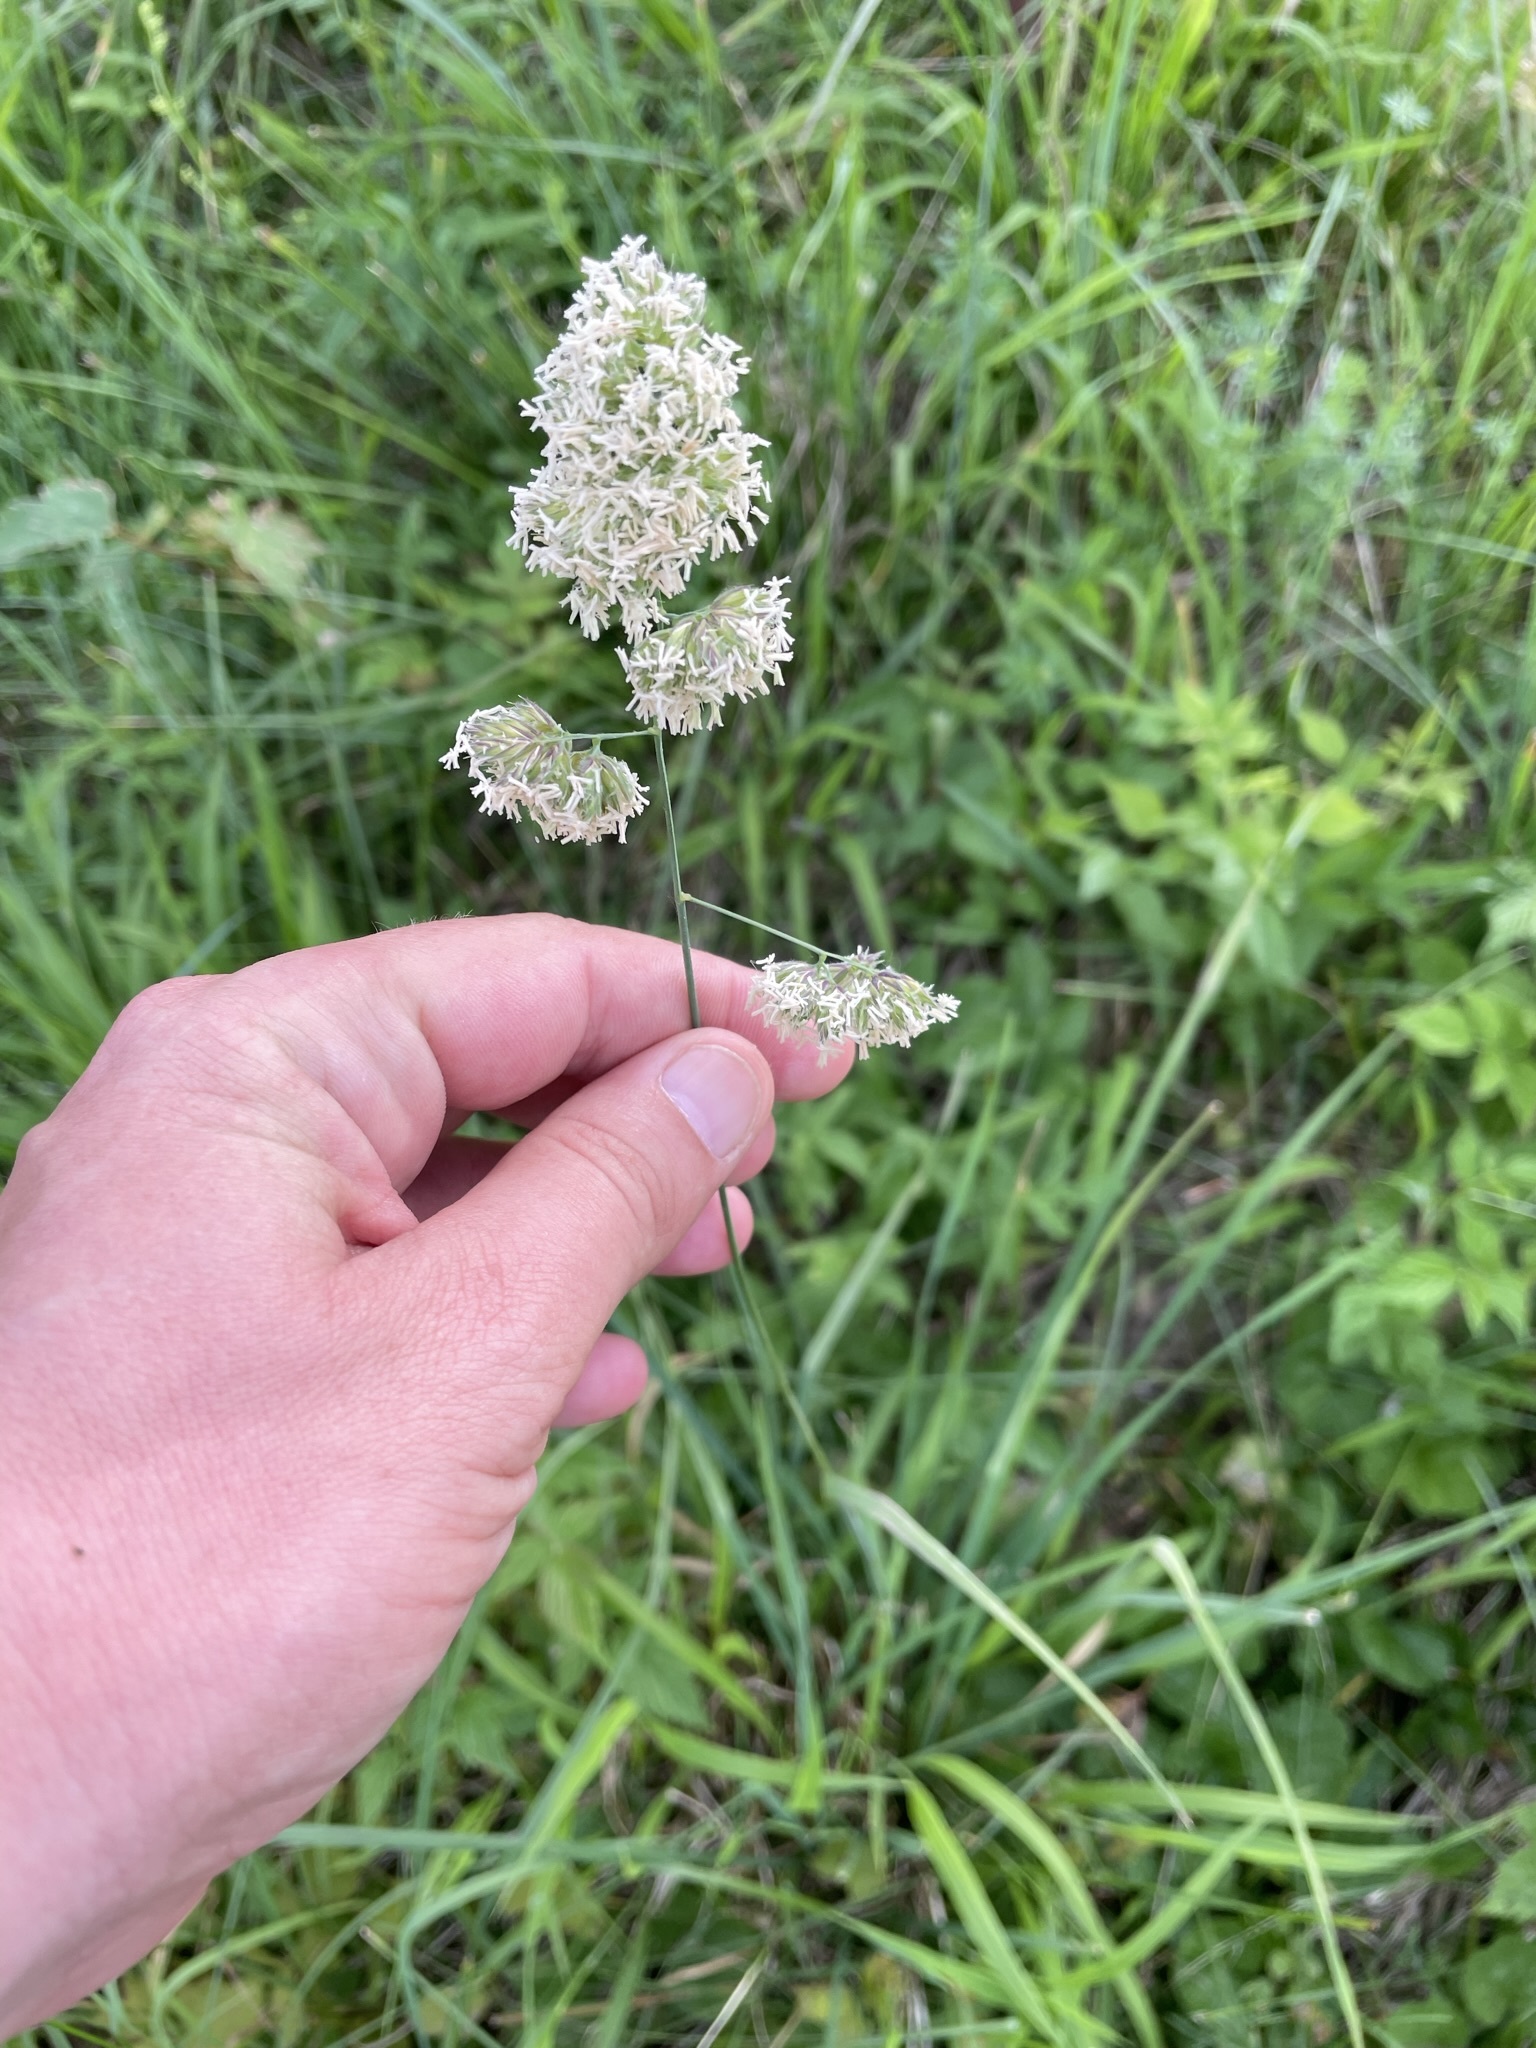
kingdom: Plantae
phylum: Tracheophyta
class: Liliopsida
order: Poales
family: Poaceae
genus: Dactylis
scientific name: Dactylis glomerata
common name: Orchardgrass
